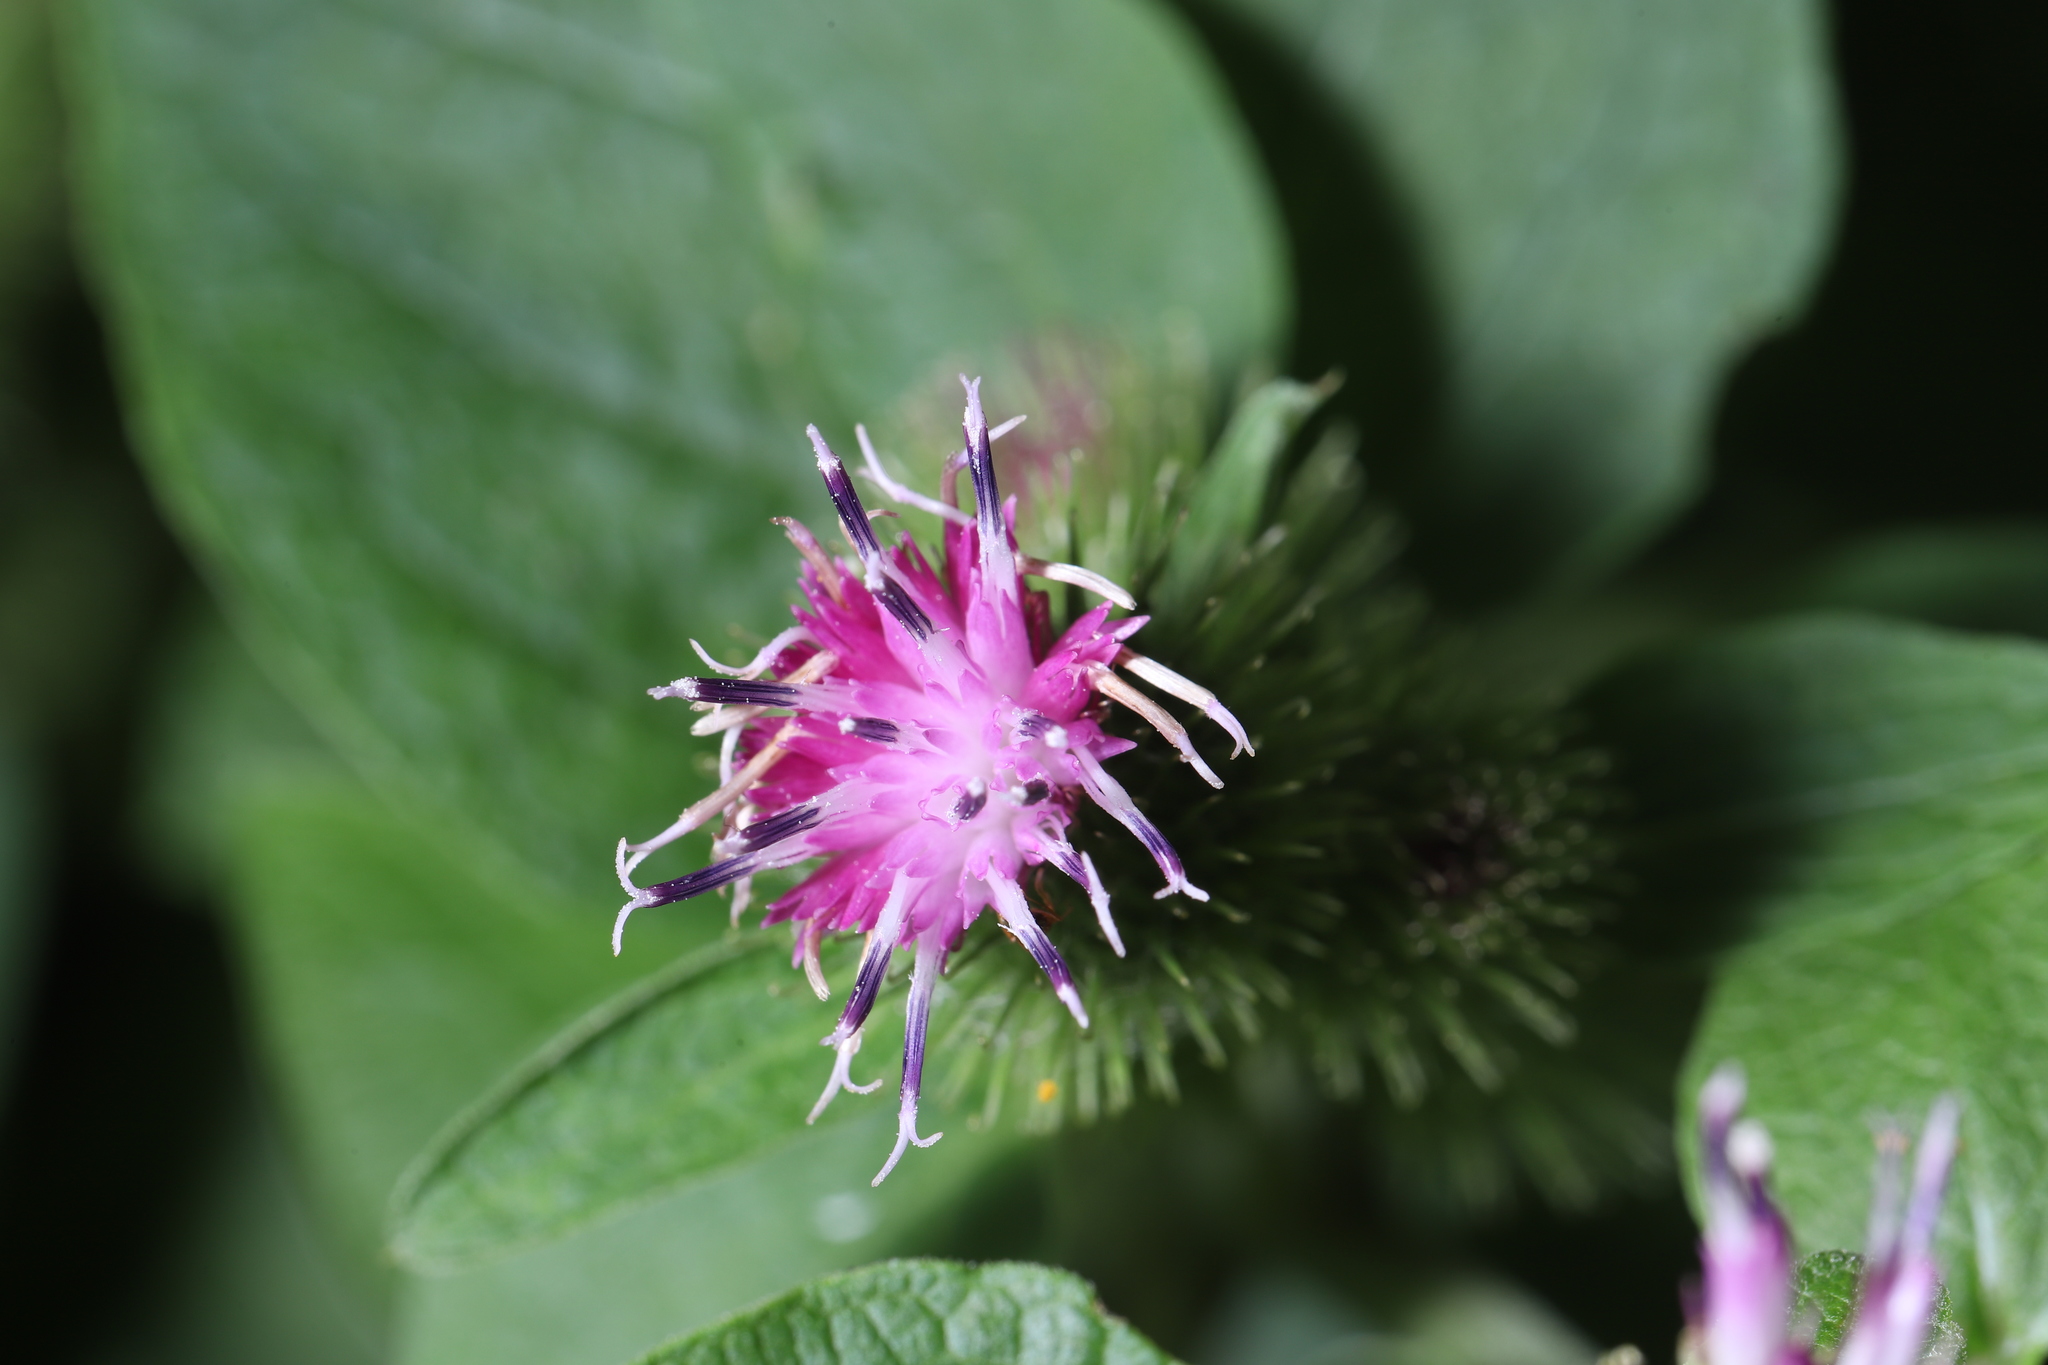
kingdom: Plantae
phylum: Tracheophyta
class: Magnoliopsida
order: Asterales
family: Asteraceae
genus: Arctium
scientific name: Arctium minus
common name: Lesser burdock
